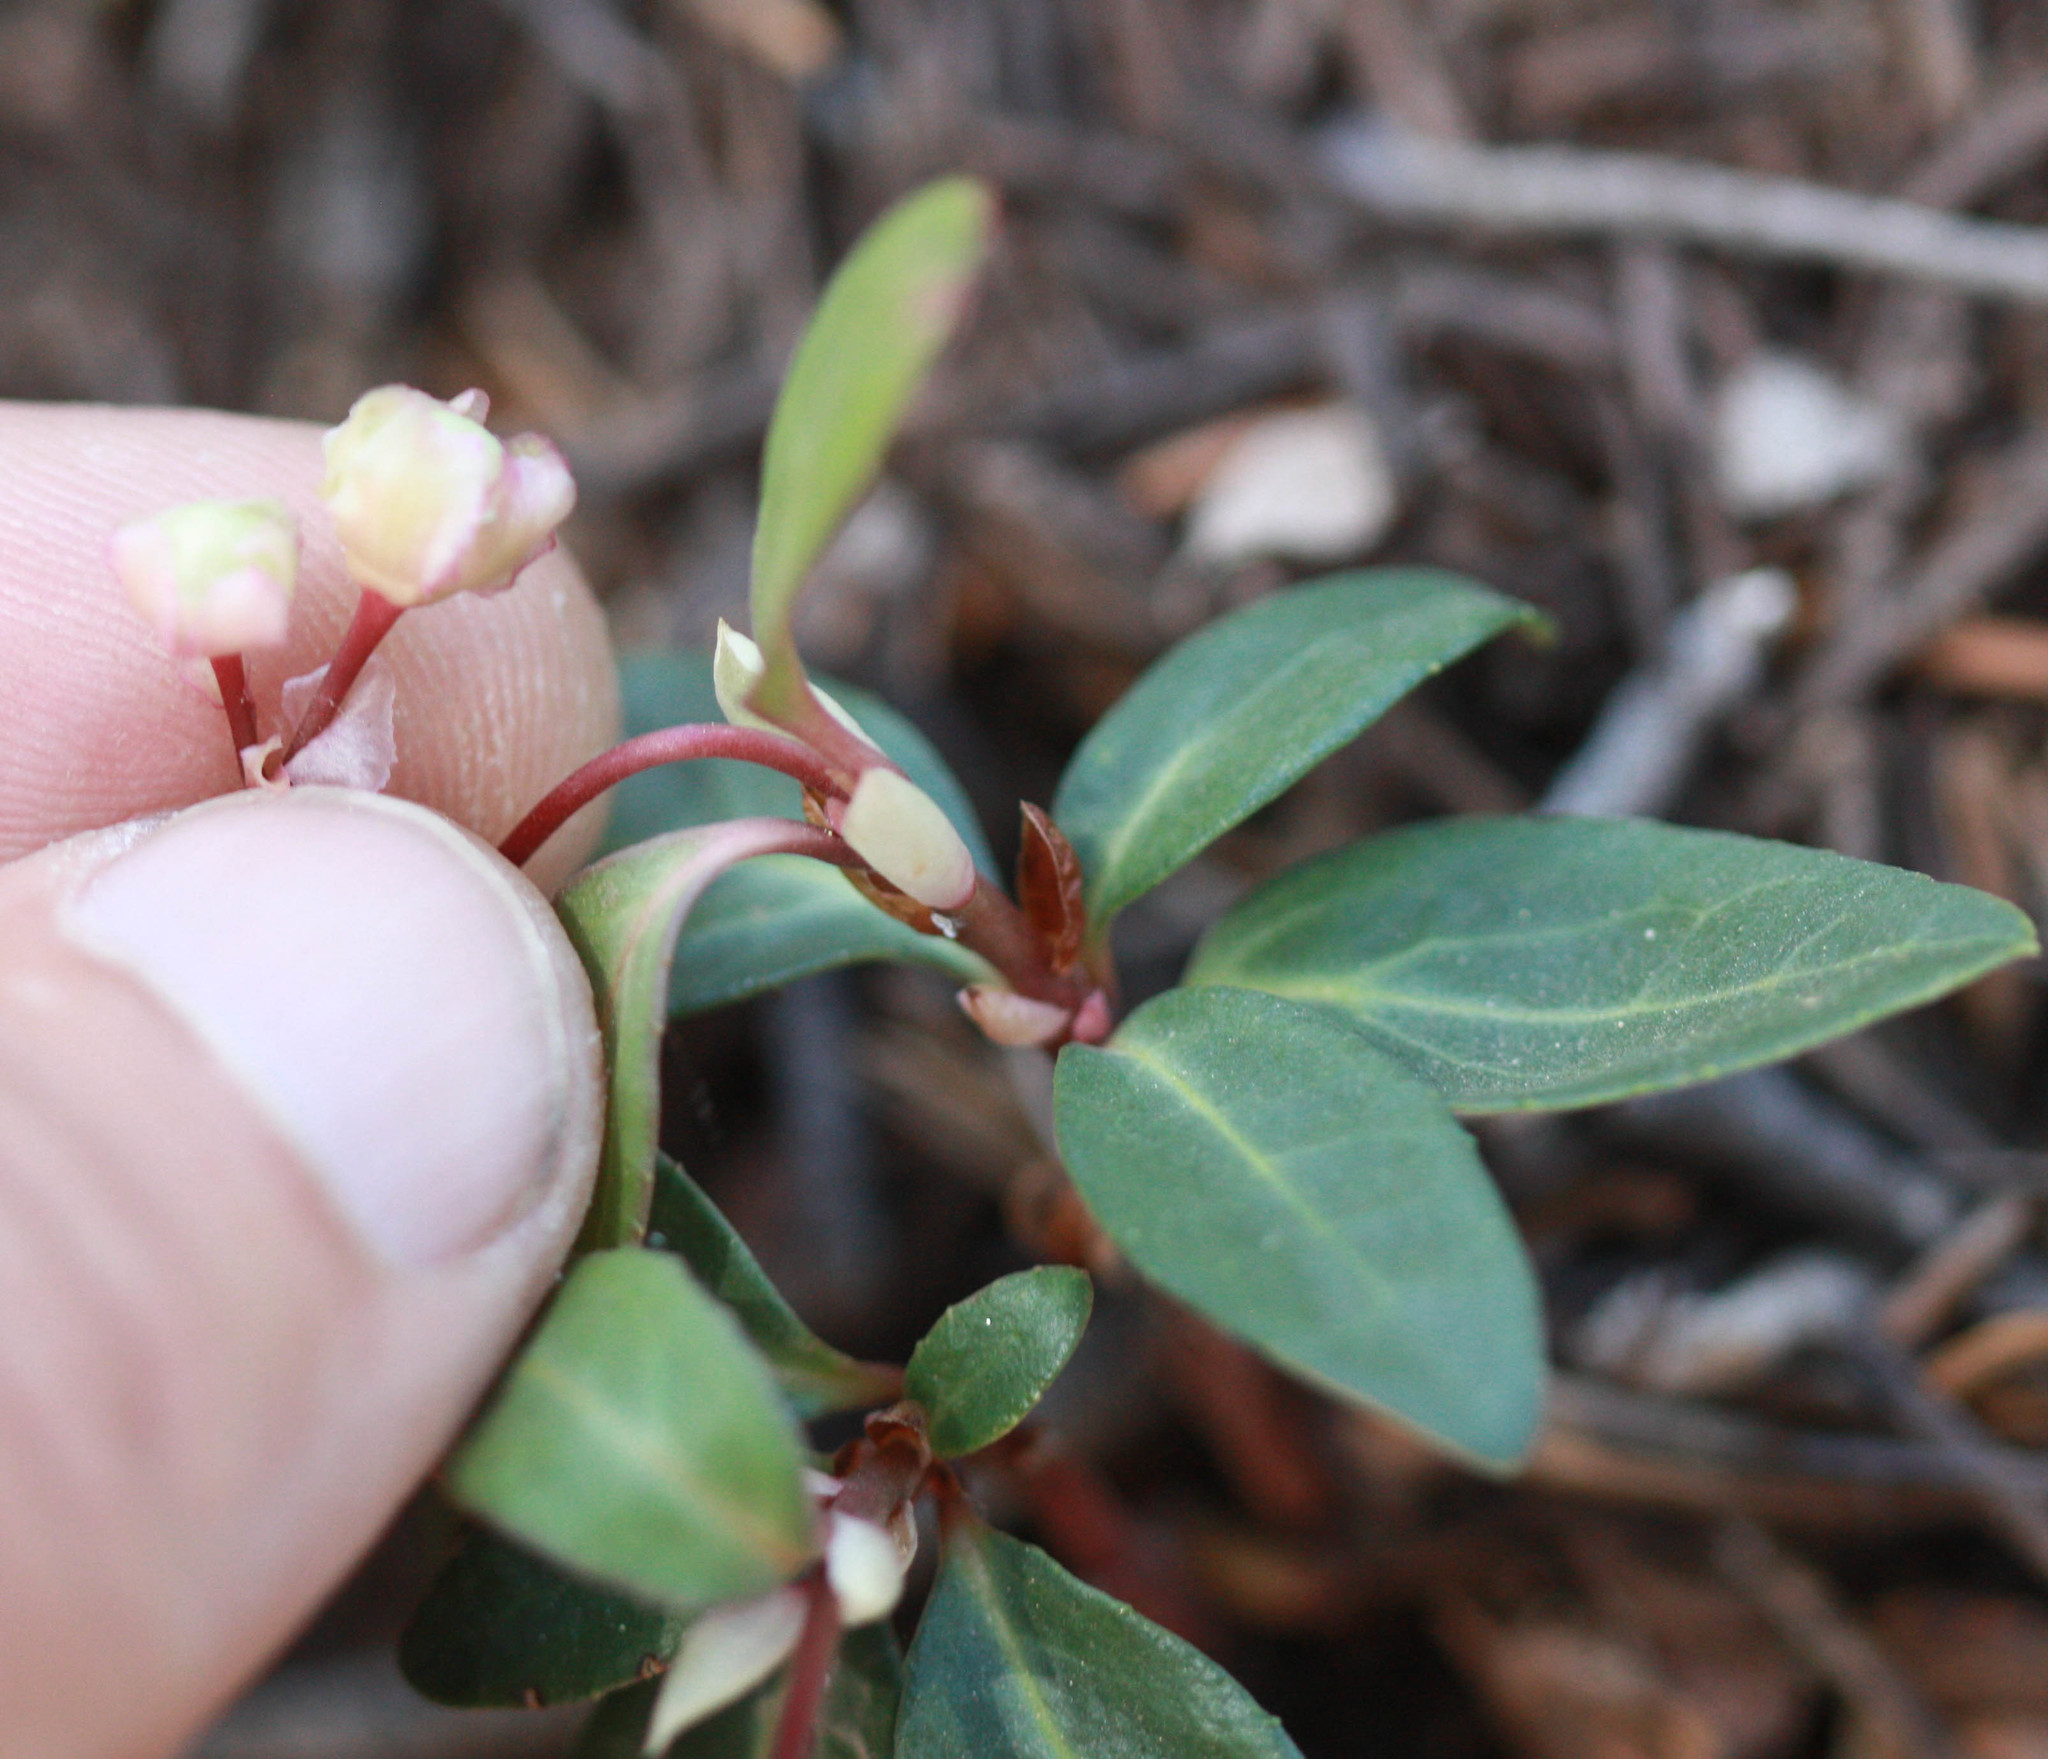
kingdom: Plantae
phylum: Tracheophyta
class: Magnoliopsida
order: Ericales
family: Ericaceae
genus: Chimaphila
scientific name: Chimaphila menziesii
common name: Menzies' pipsissewa
